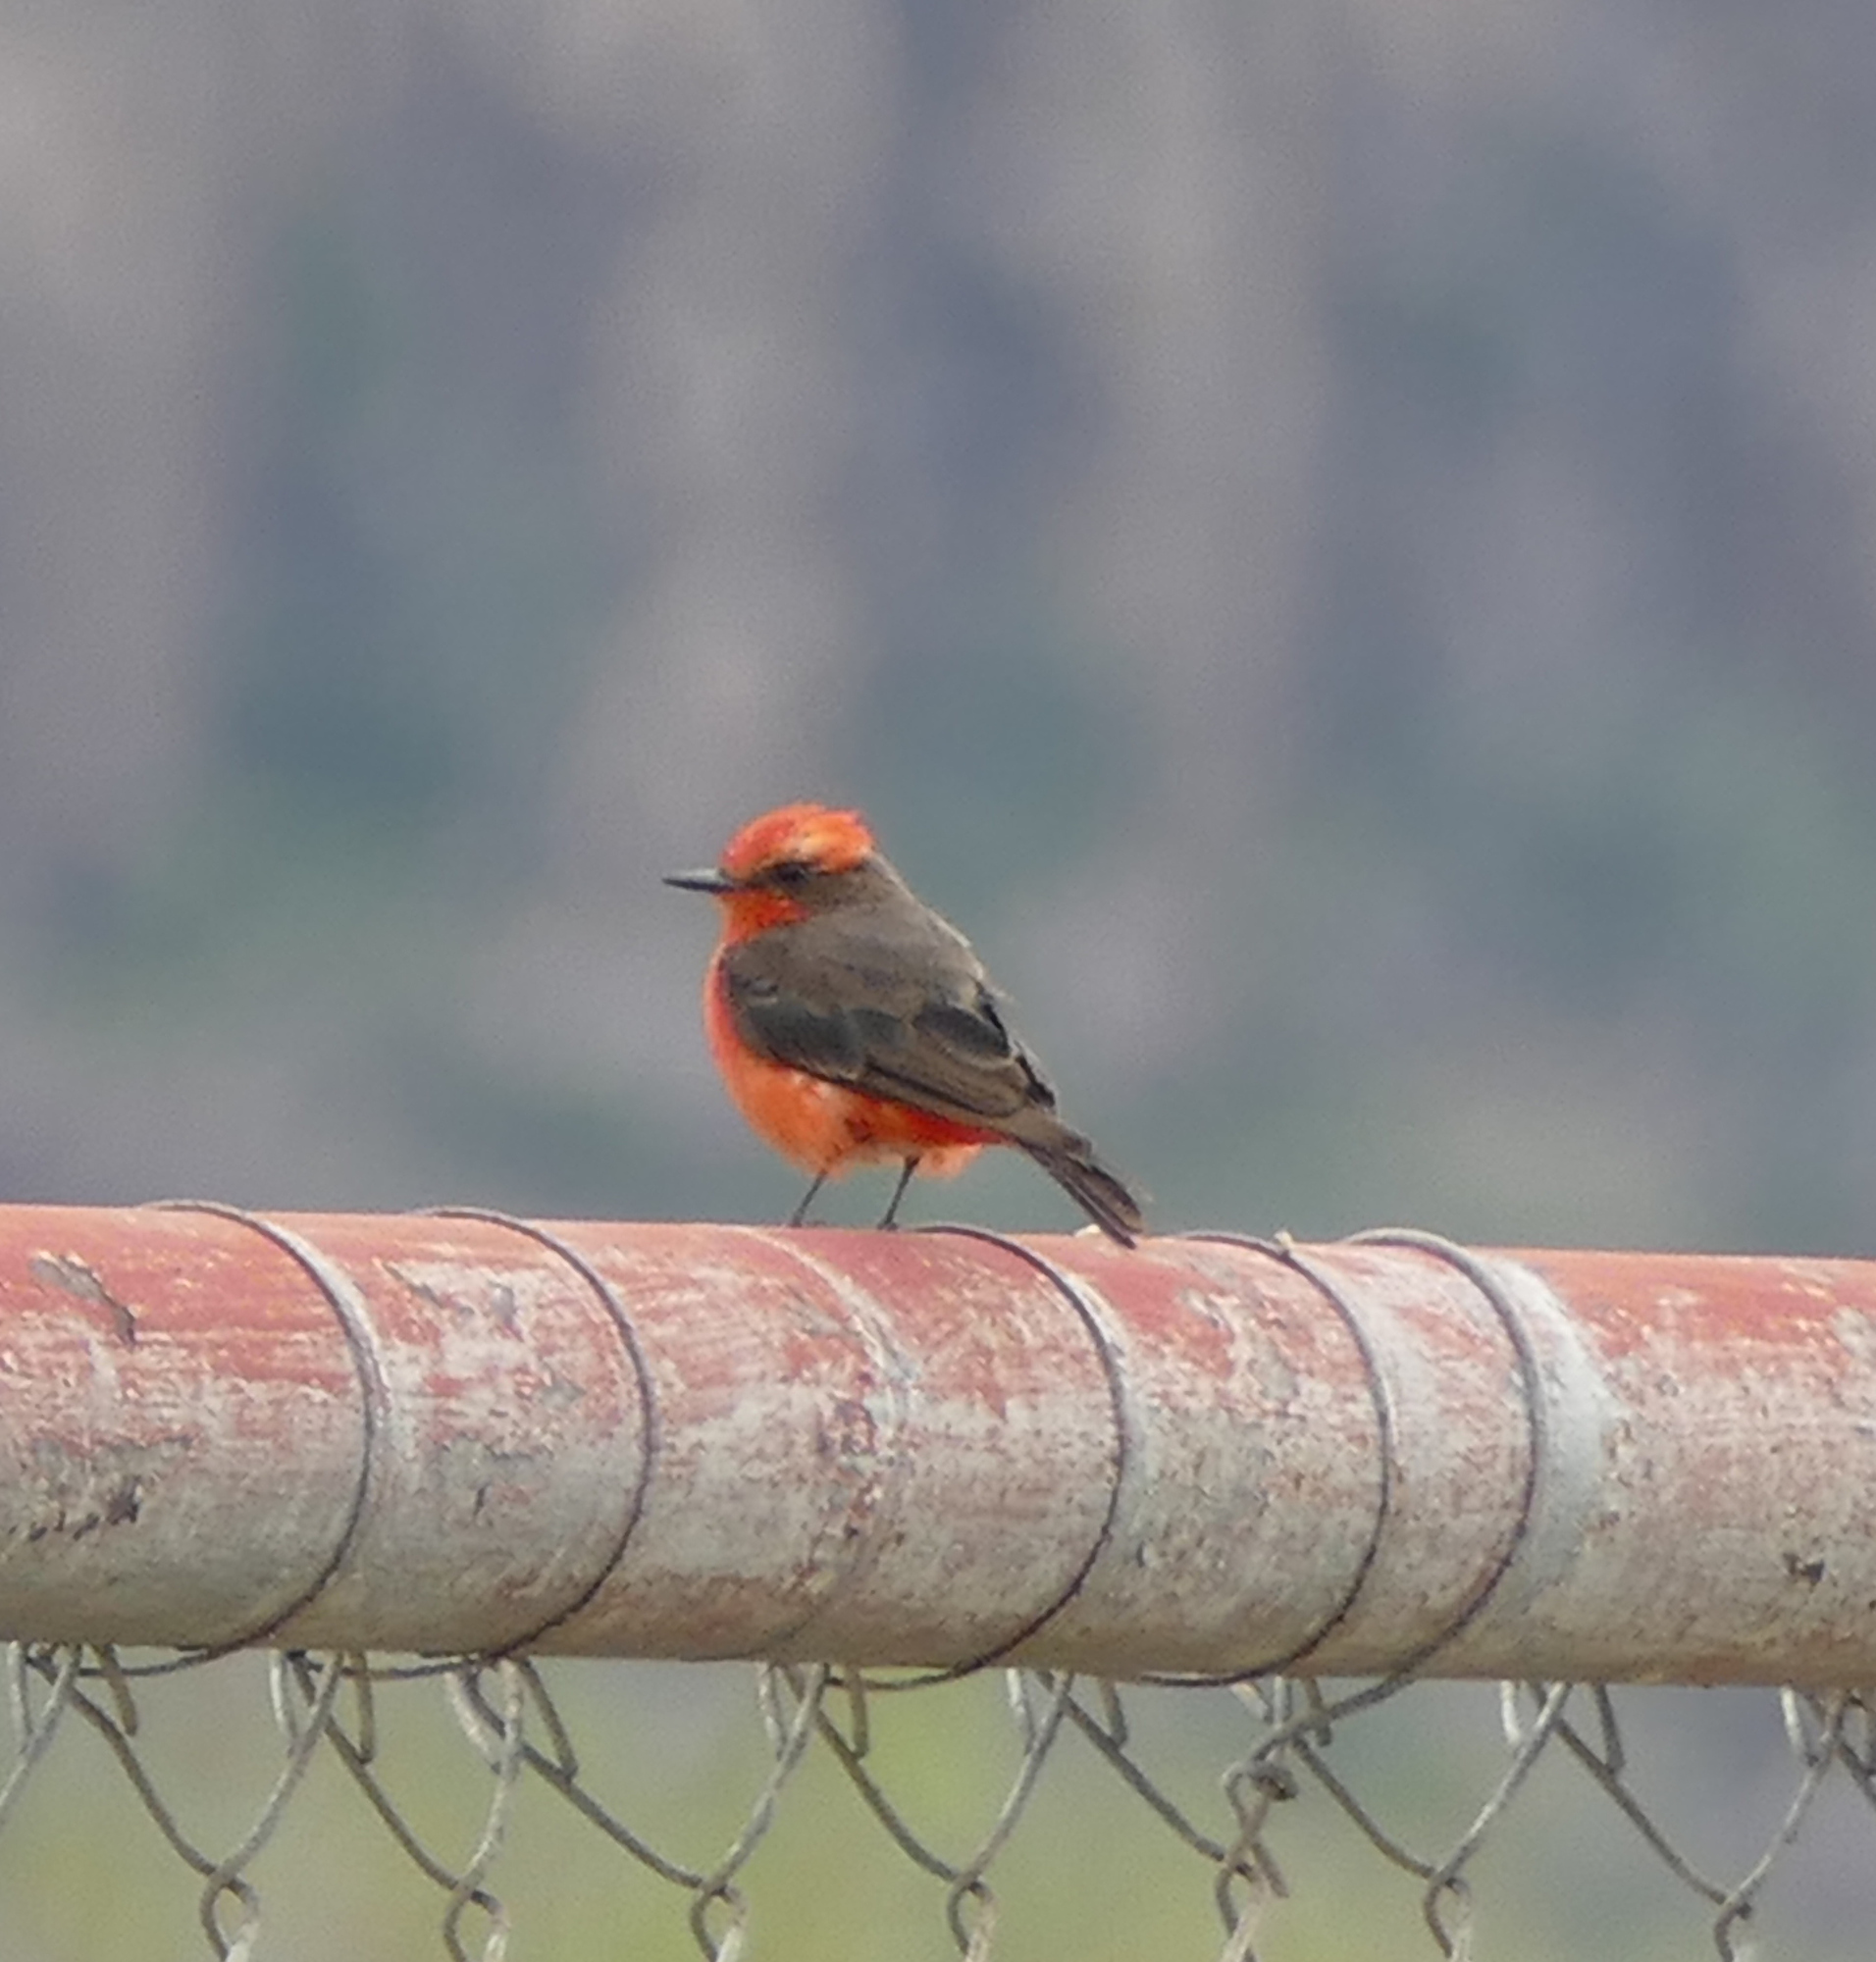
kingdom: Animalia
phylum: Chordata
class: Aves
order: Passeriformes
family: Tyrannidae
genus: Pyrocephalus
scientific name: Pyrocephalus rubinus
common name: Vermilion flycatcher
